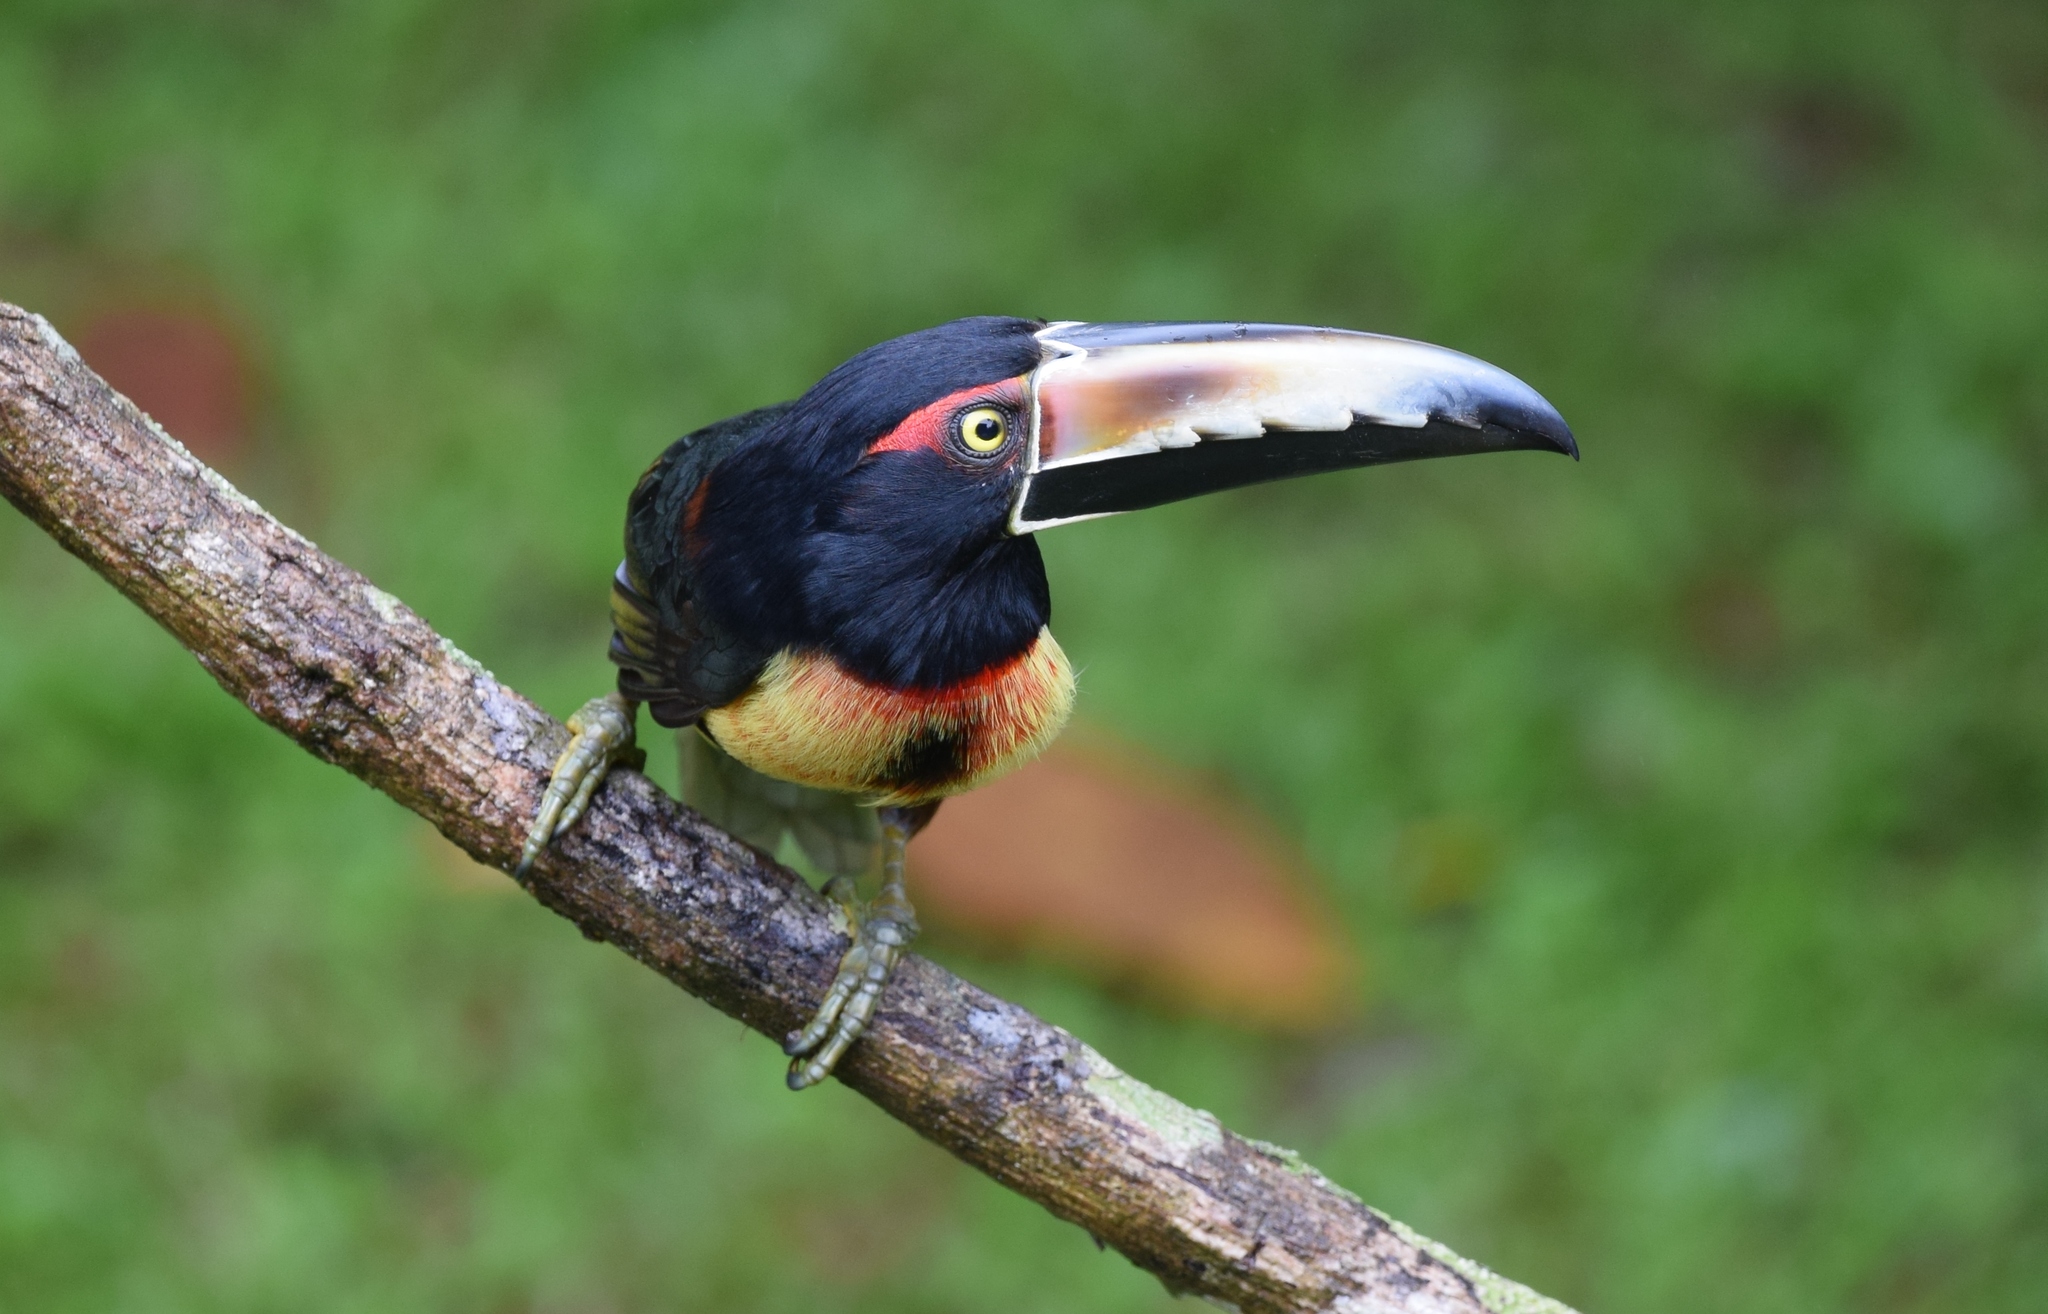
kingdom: Animalia
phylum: Chordata
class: Aves
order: Piciformes
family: Ramphastidae
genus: Pteroglossus
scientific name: Pteroglossus torquatus
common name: Collared aracari
